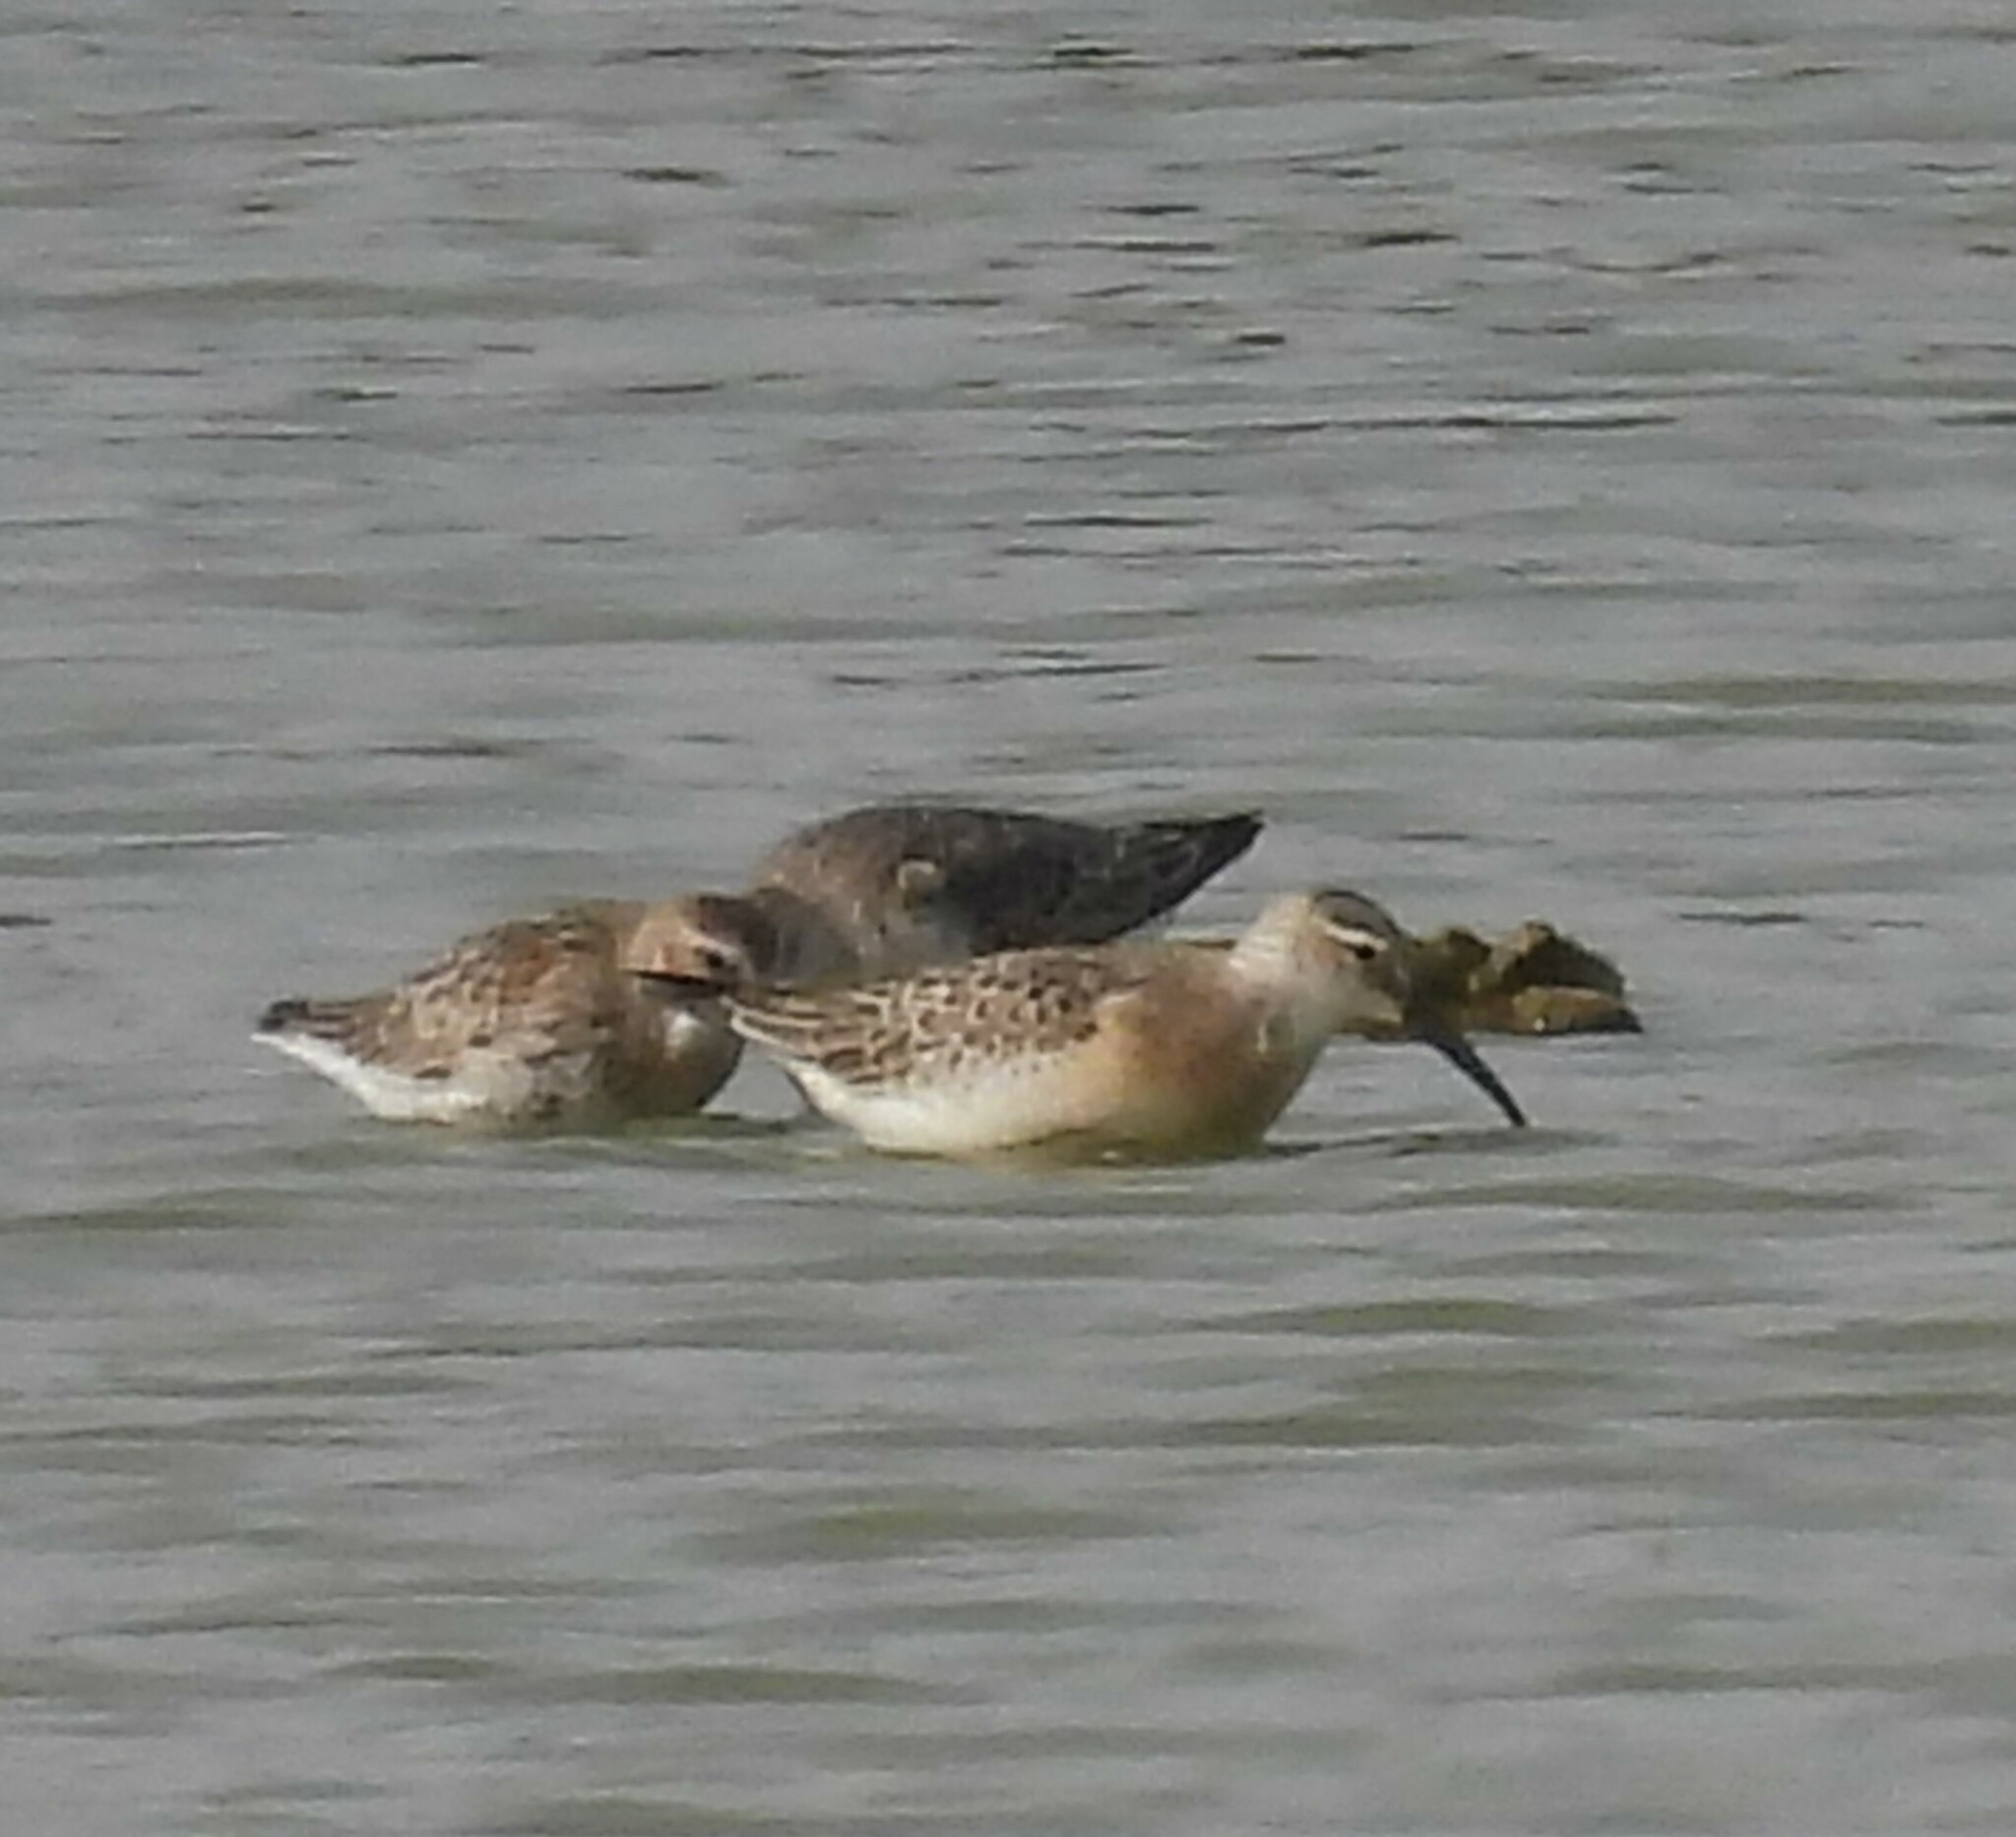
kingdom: Animalia
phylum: Chordata
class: Aves
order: Charadriiformes
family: Scolopacidae
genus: Calidris
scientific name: Calidris ferruginea
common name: Curlew sandpiper
